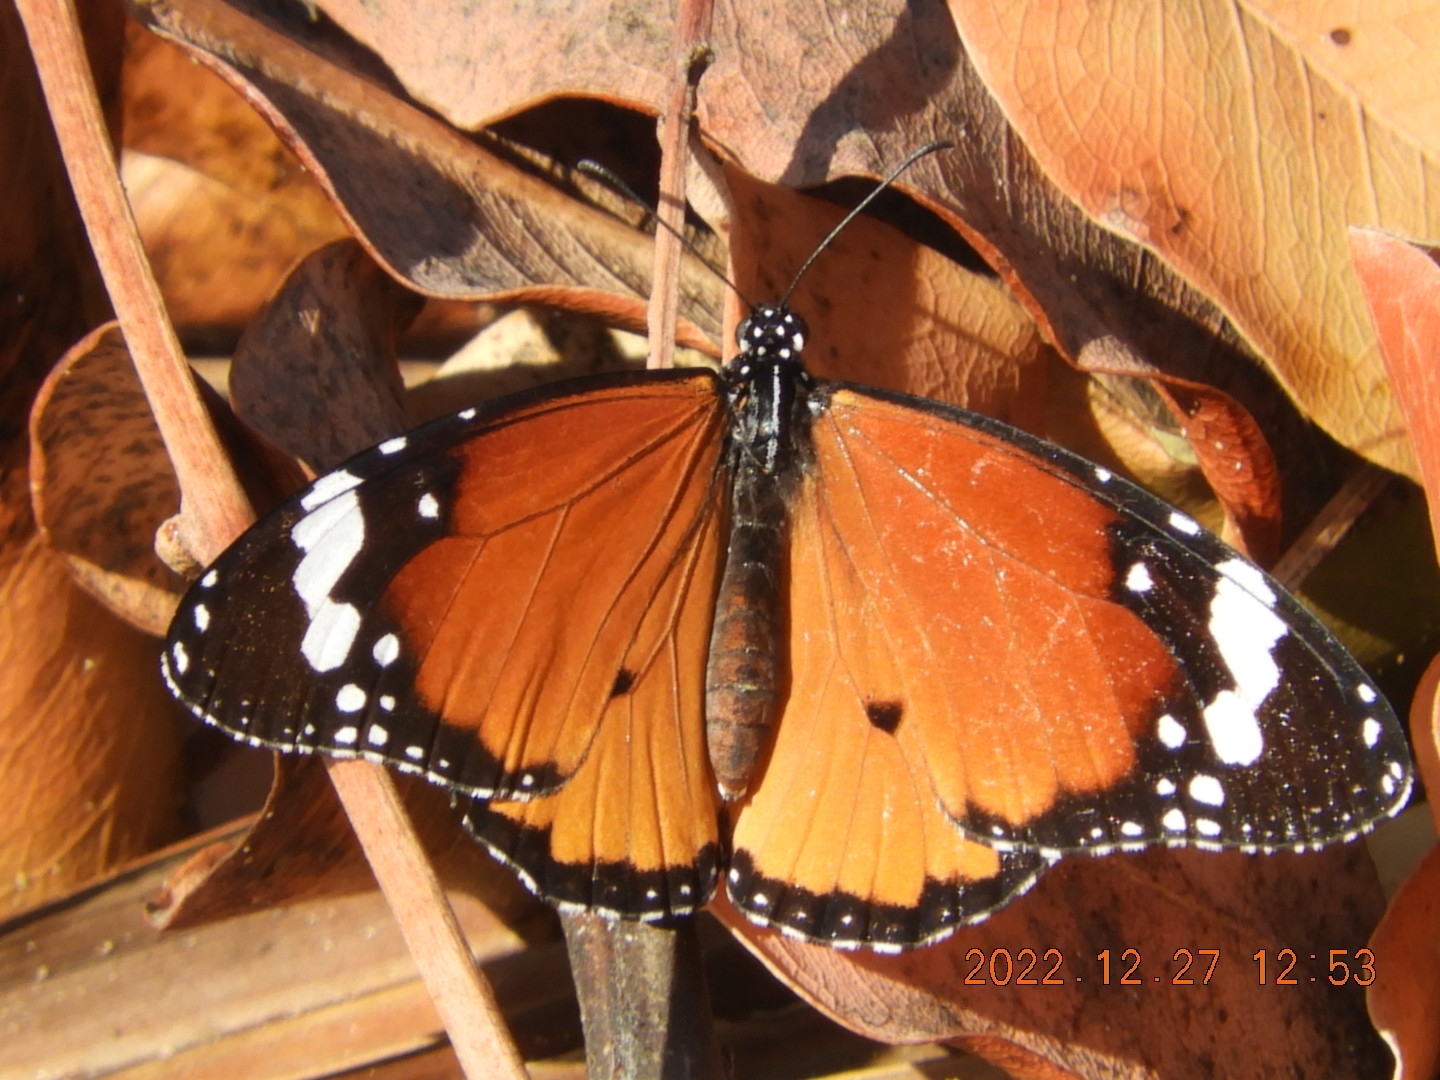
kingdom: Animalia
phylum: Arthropoda
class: Insecta
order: Lepidoptera
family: Nymphalidae
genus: Danaus
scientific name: Danaus chrysippus
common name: Plain tiger
